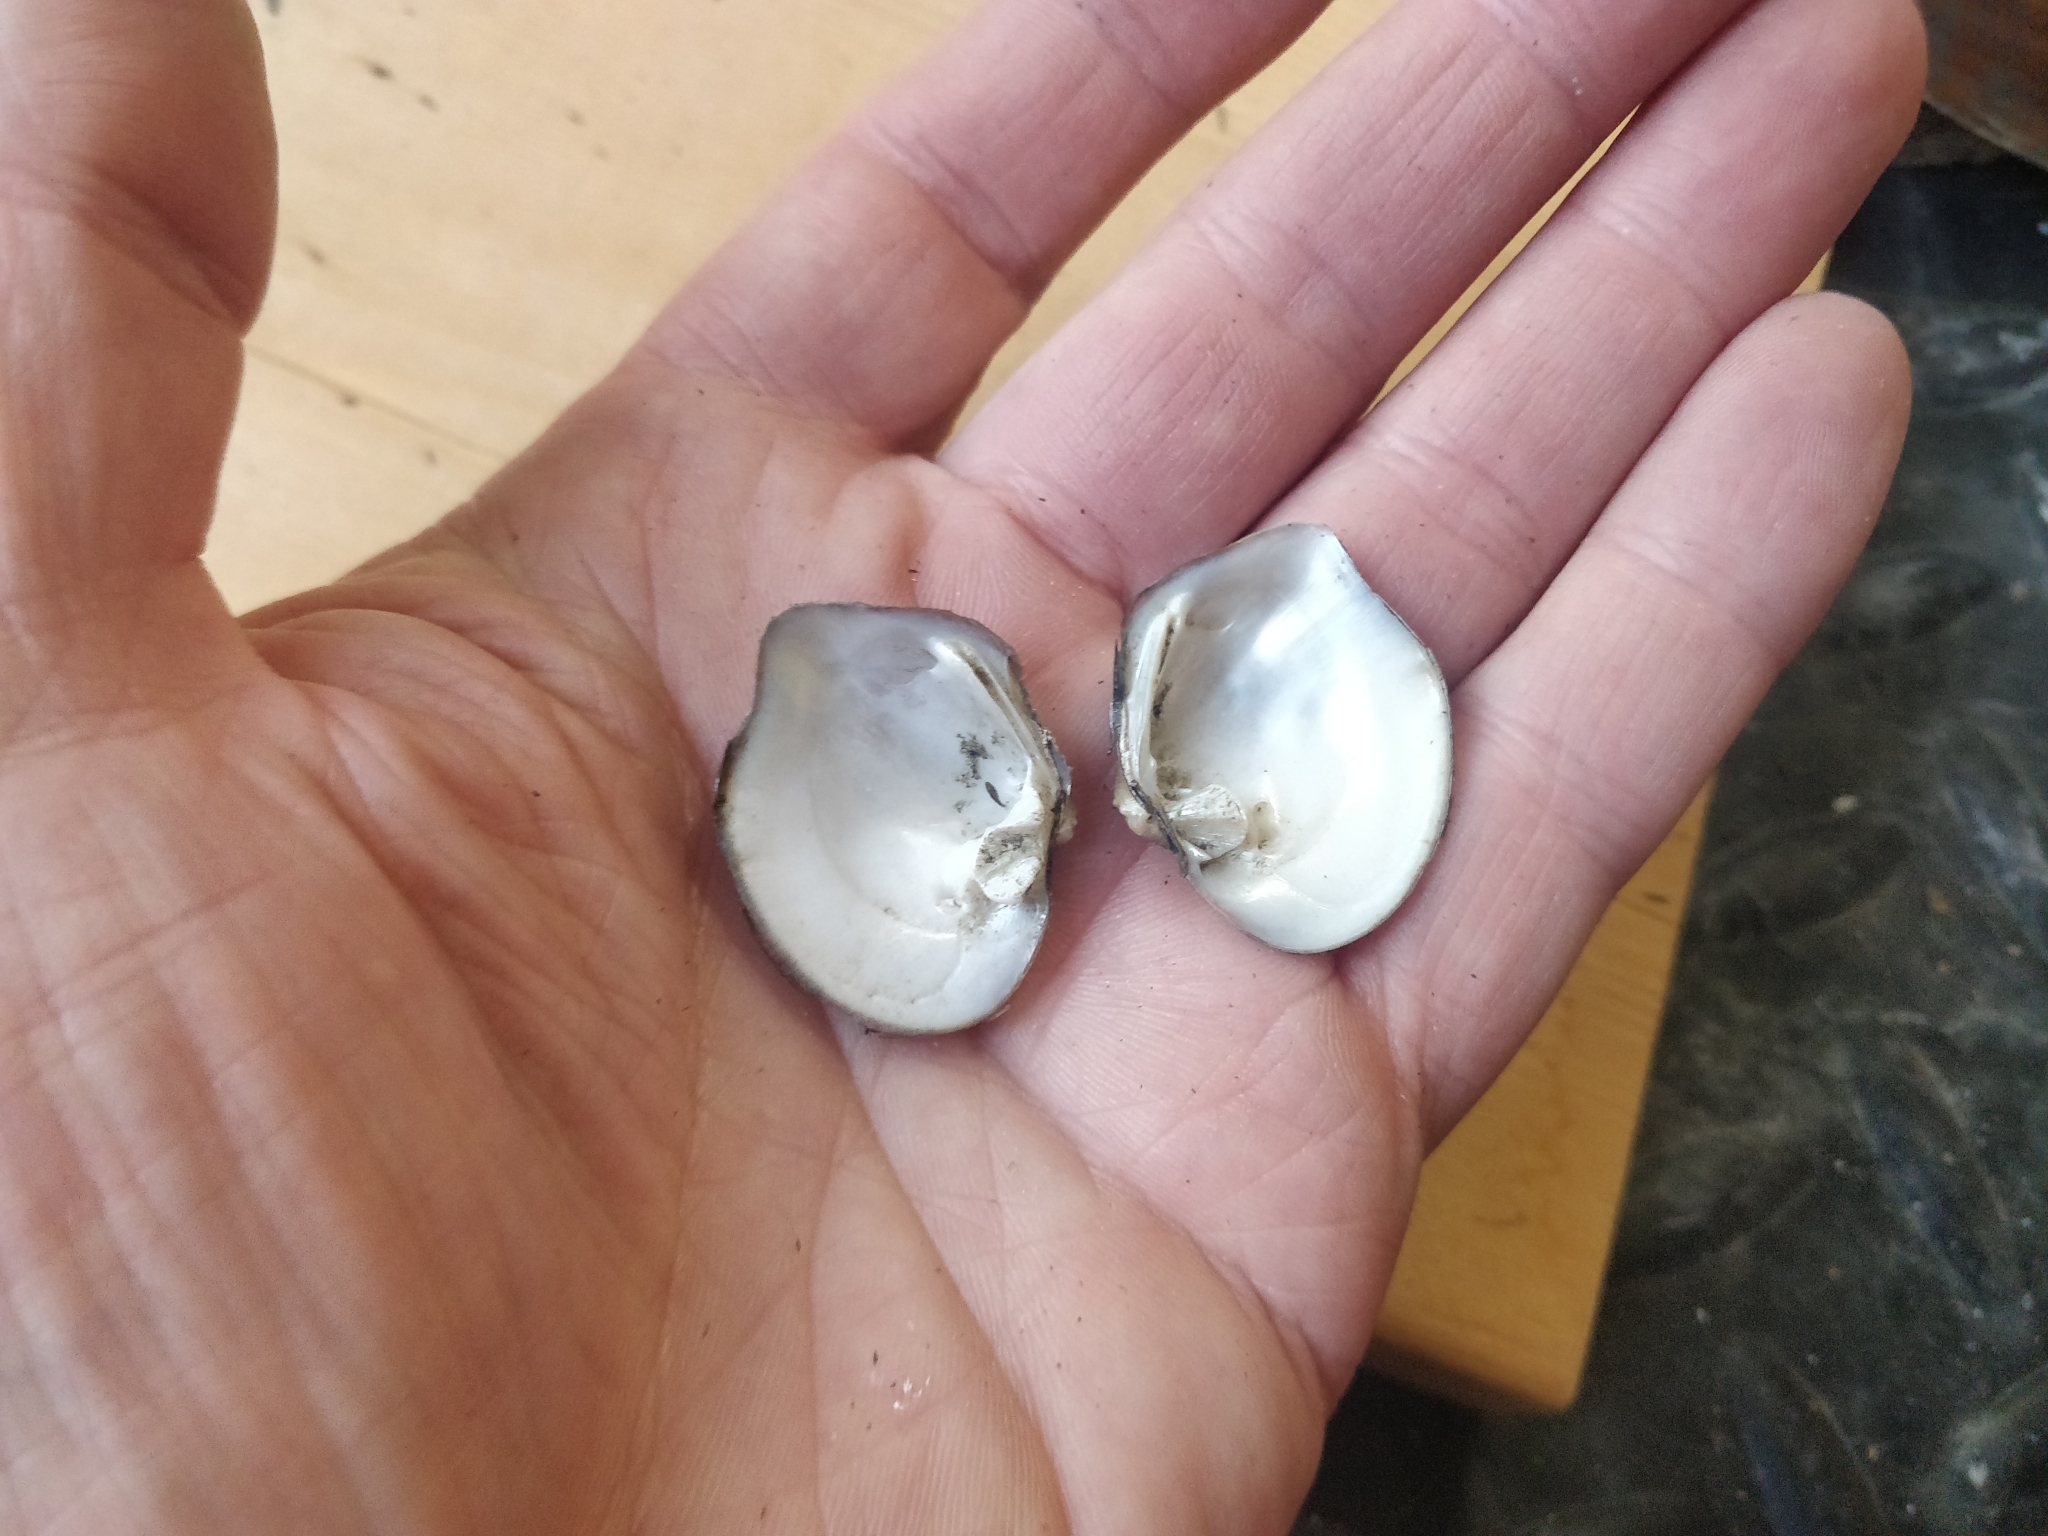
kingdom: Animalia
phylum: Mollusca
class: Bivalvia
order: Unionida
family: Unionidae
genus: Quadrula
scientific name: Quadrula quadrula
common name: Mapleleaf
